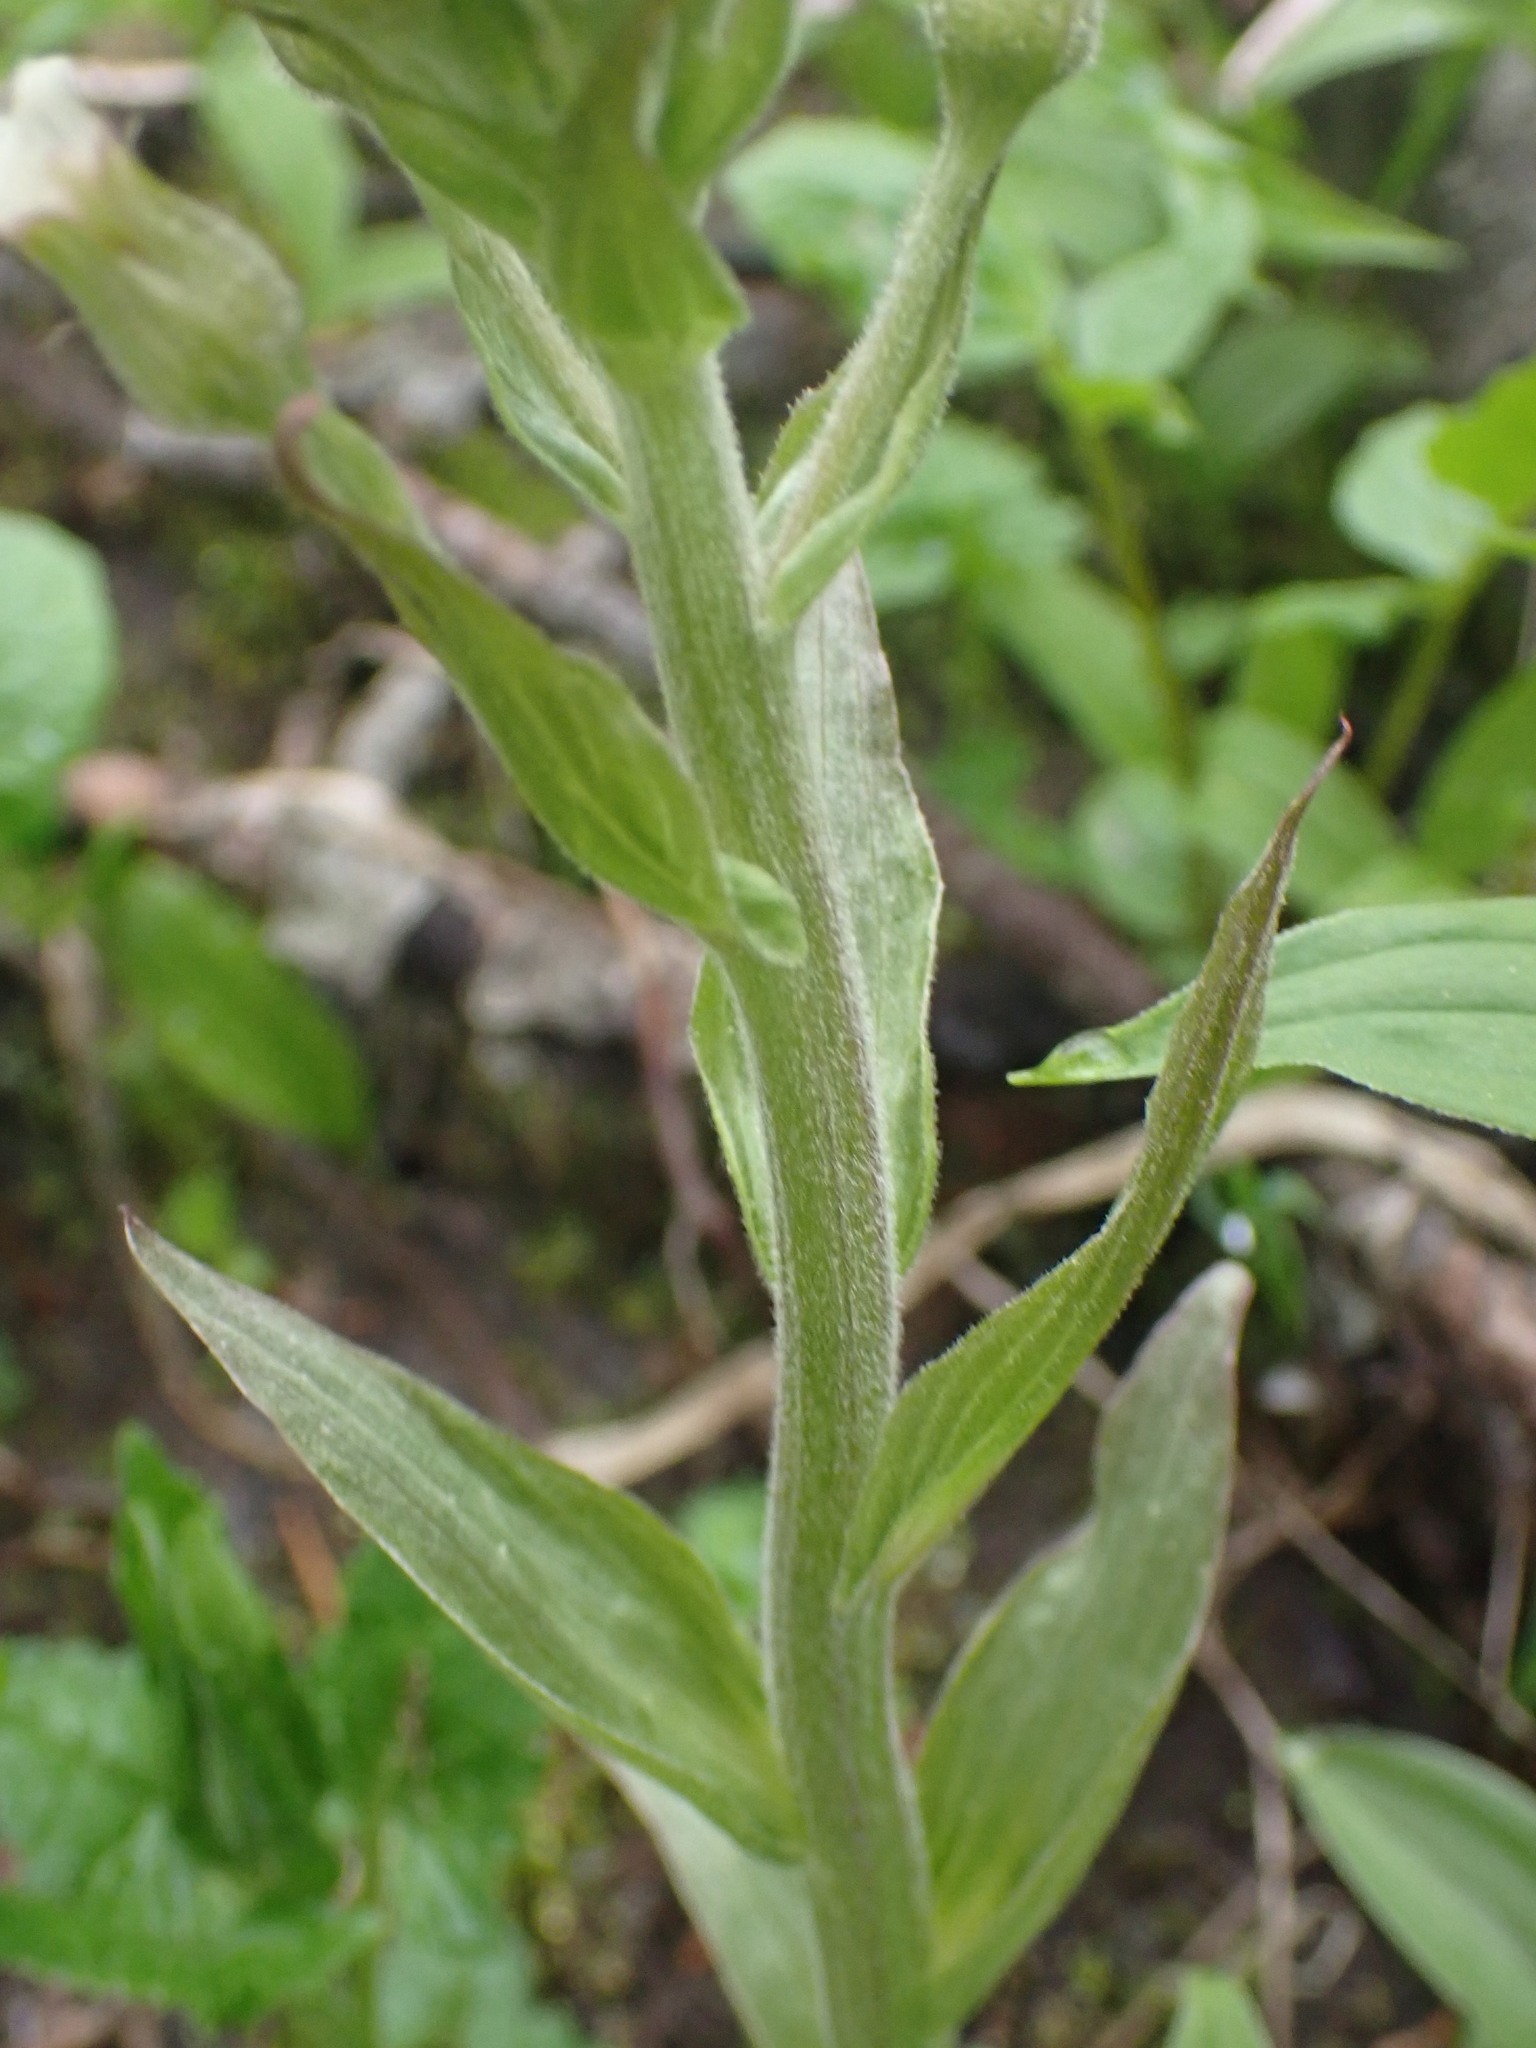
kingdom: Plantae
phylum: Tracheophyta
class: Magnoliopsida
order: Asterales
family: Asteraceae
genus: Petasites
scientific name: Petasites frigidus
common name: Arctic butterbur
